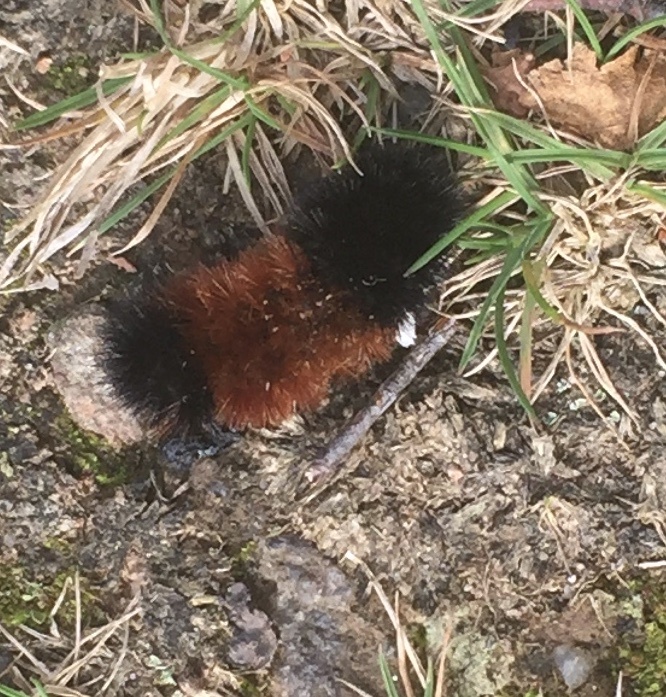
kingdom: Animalia
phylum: Arthropoda
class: Insecta
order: Lepidoptera
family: Erebidae
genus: Pyrrharctia
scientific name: Pyrrharctia isabella
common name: Isabella tiger moth
